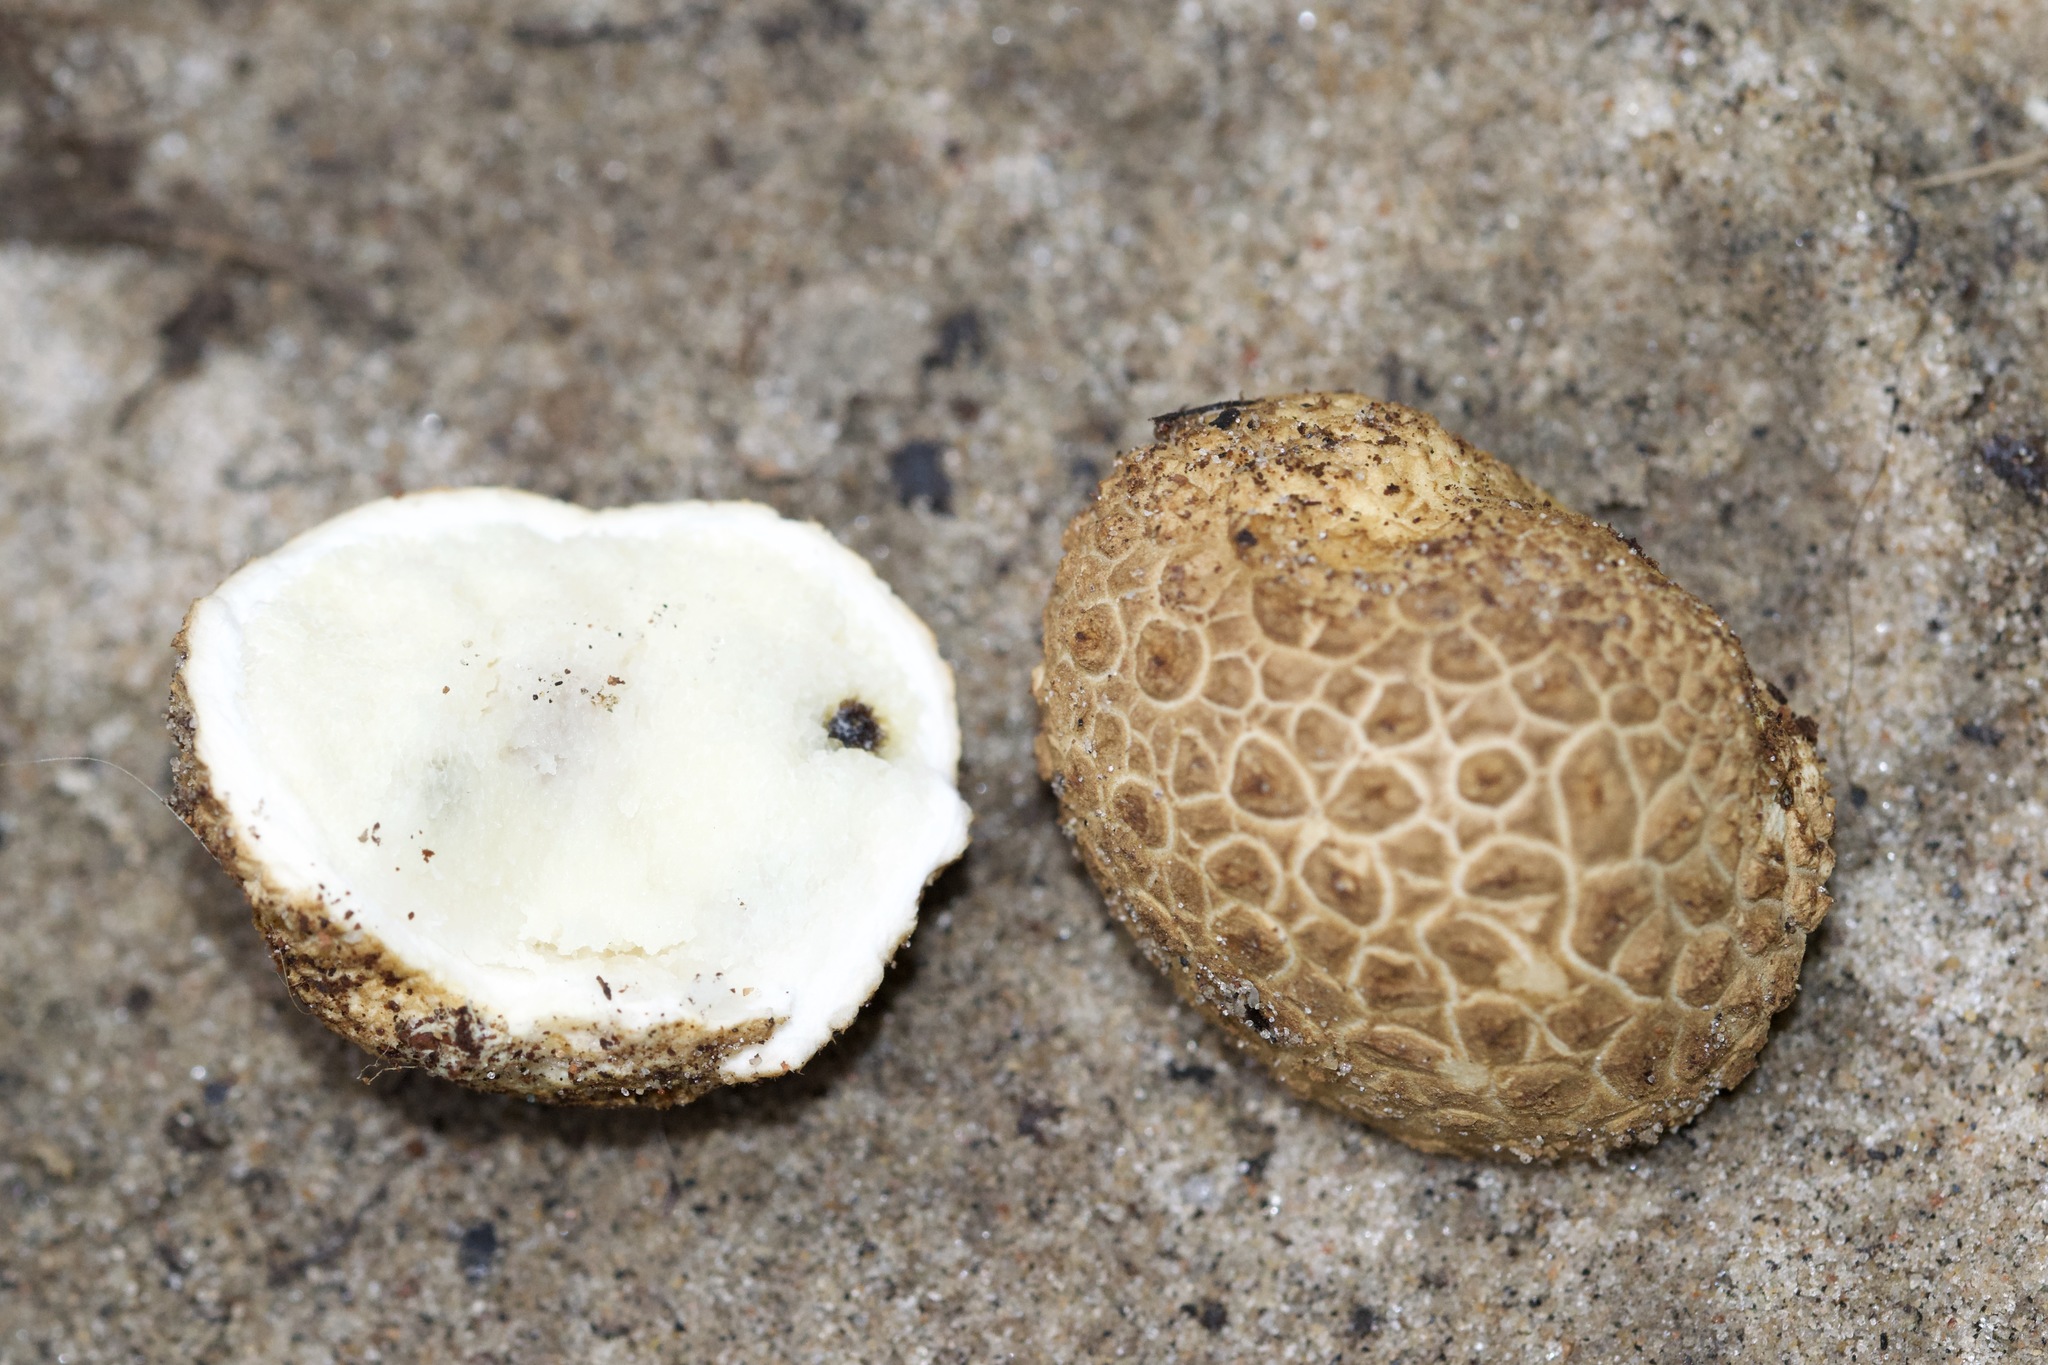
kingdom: Fungi
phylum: Basidiomycota
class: Agaricomycetes
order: Boletales
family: Sclerodermataceae
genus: Scleroderma
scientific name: Scleroderma citrinum
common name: Common earthball
